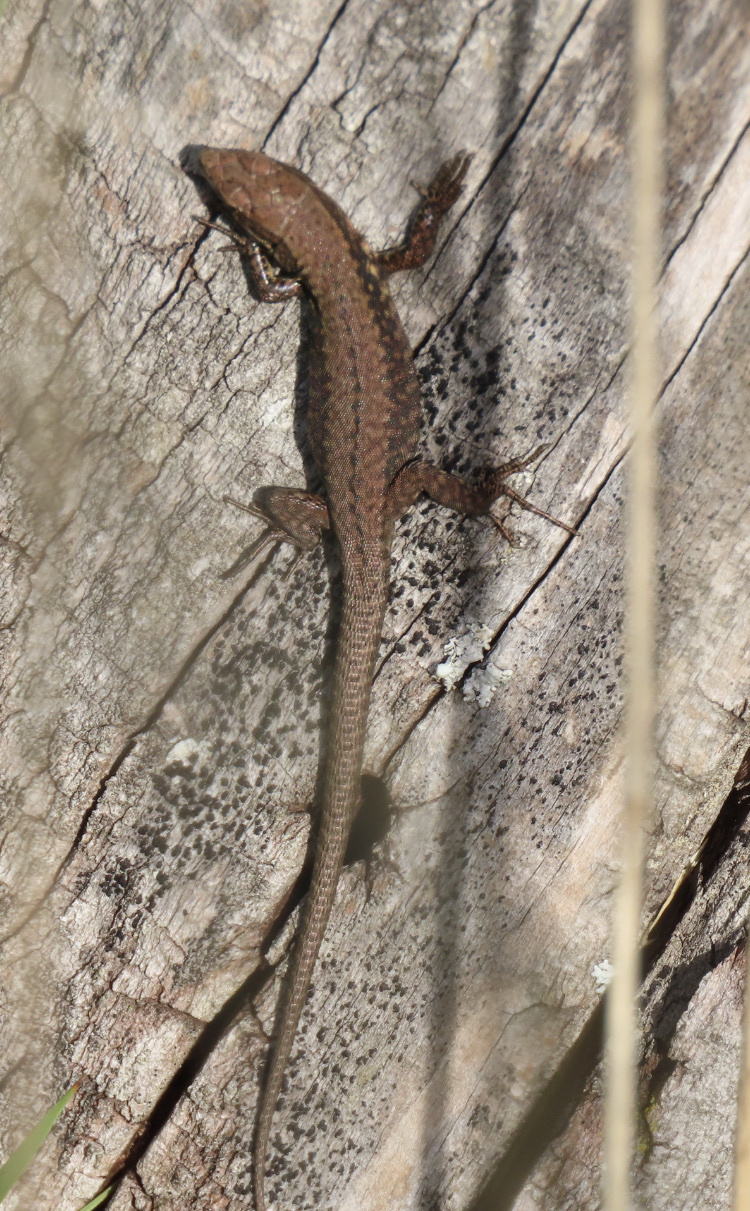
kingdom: Animalia
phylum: Chordata
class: Squamata
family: Lacertidae
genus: Podarcis
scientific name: Podarcis muralis
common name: Common wall lizard
